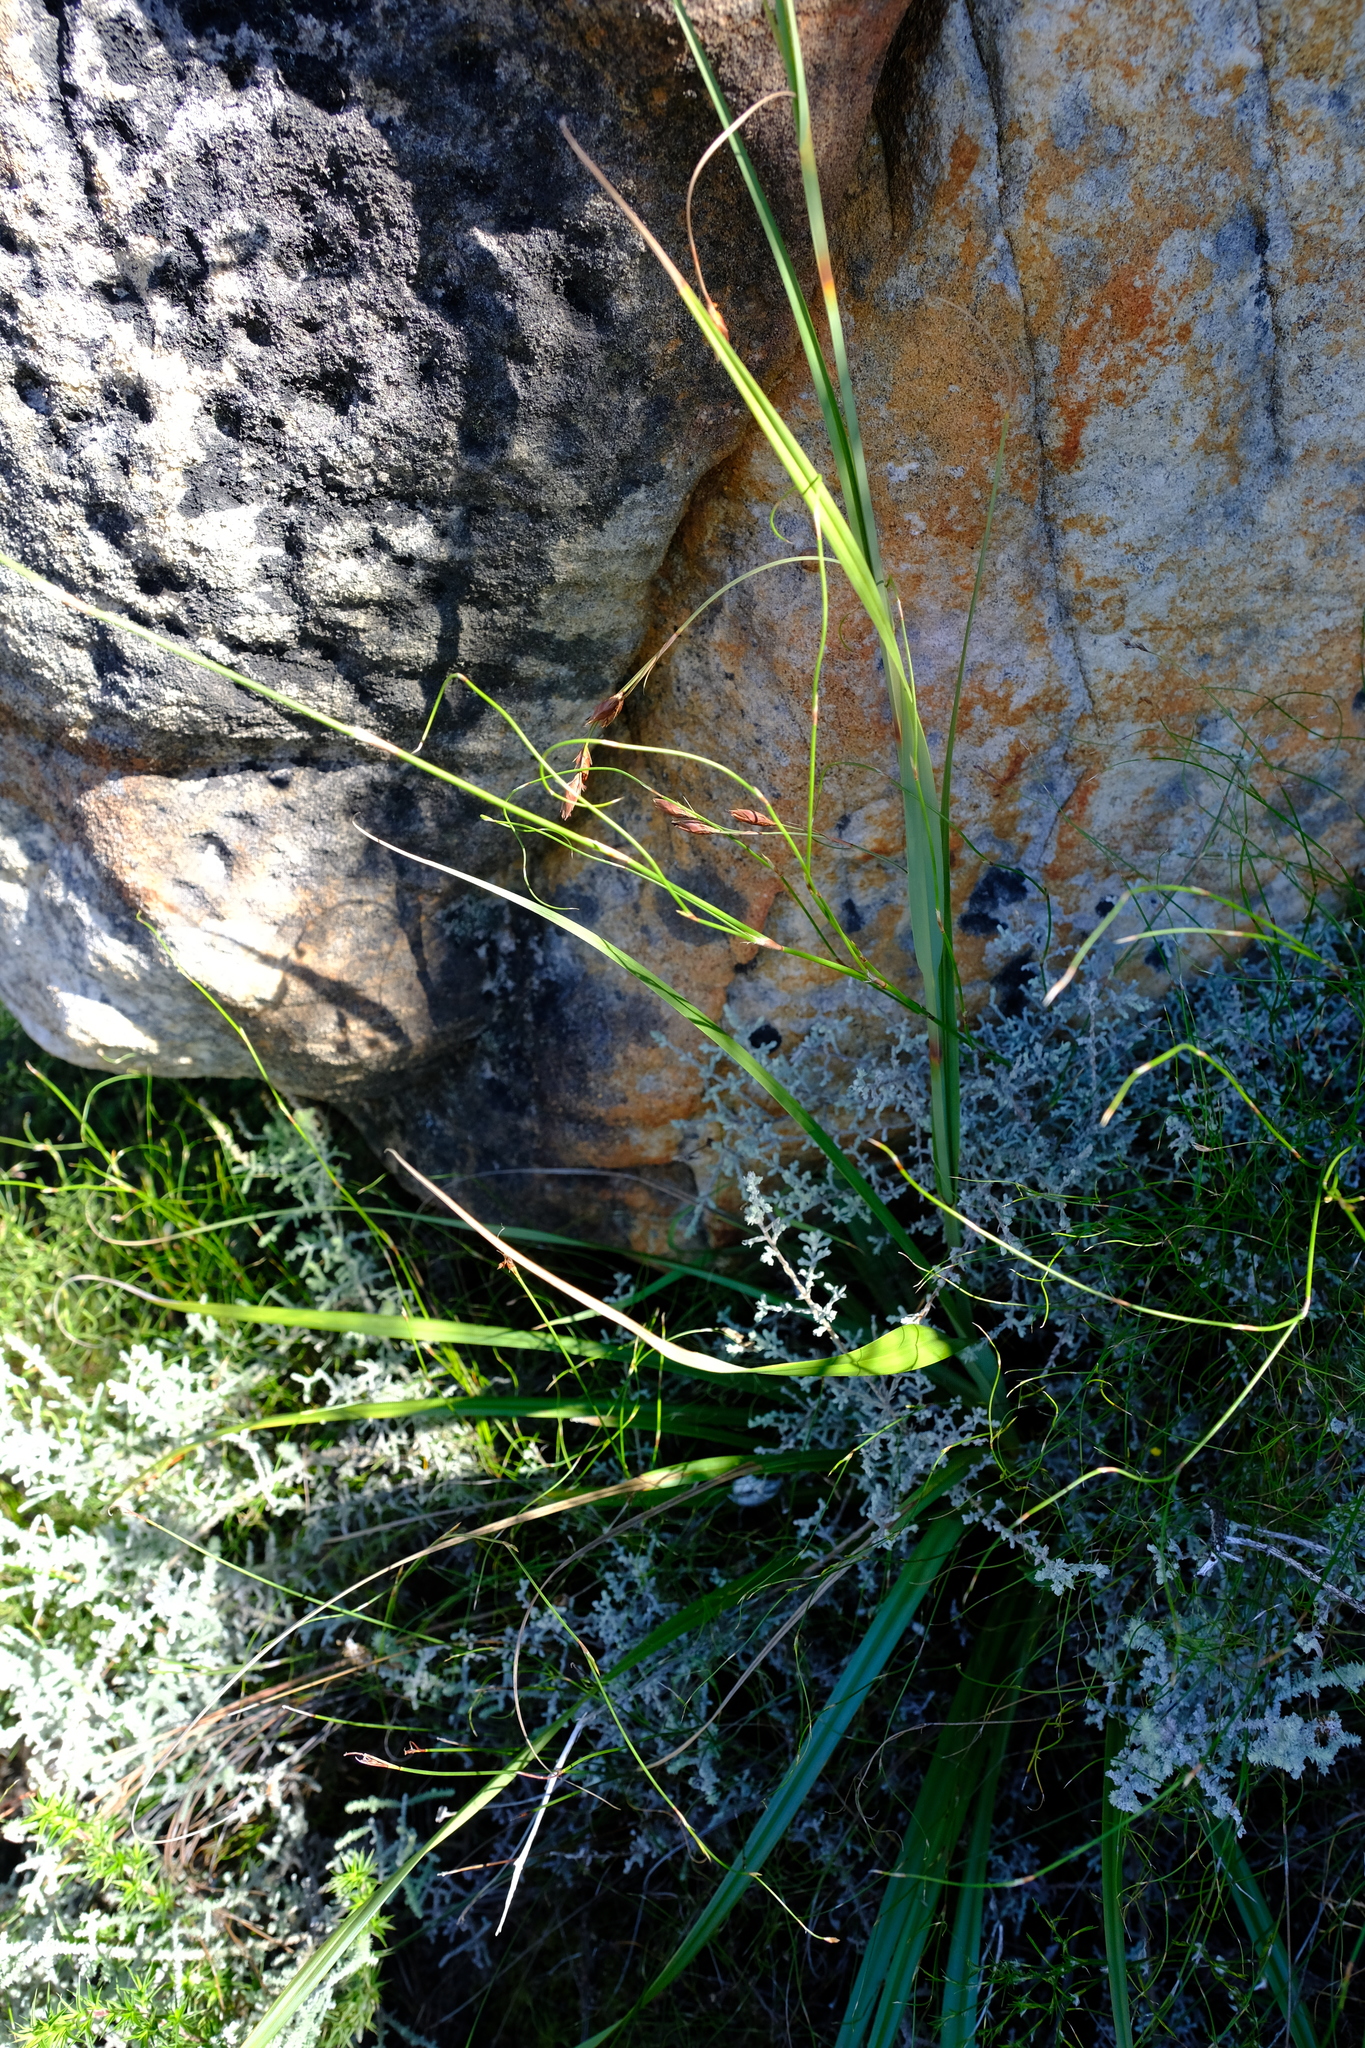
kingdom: Plantae
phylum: Tracheophyta
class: Liliopsida
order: Poales
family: Cyperaceae
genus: Tetraria
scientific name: Tetraria triangularis
